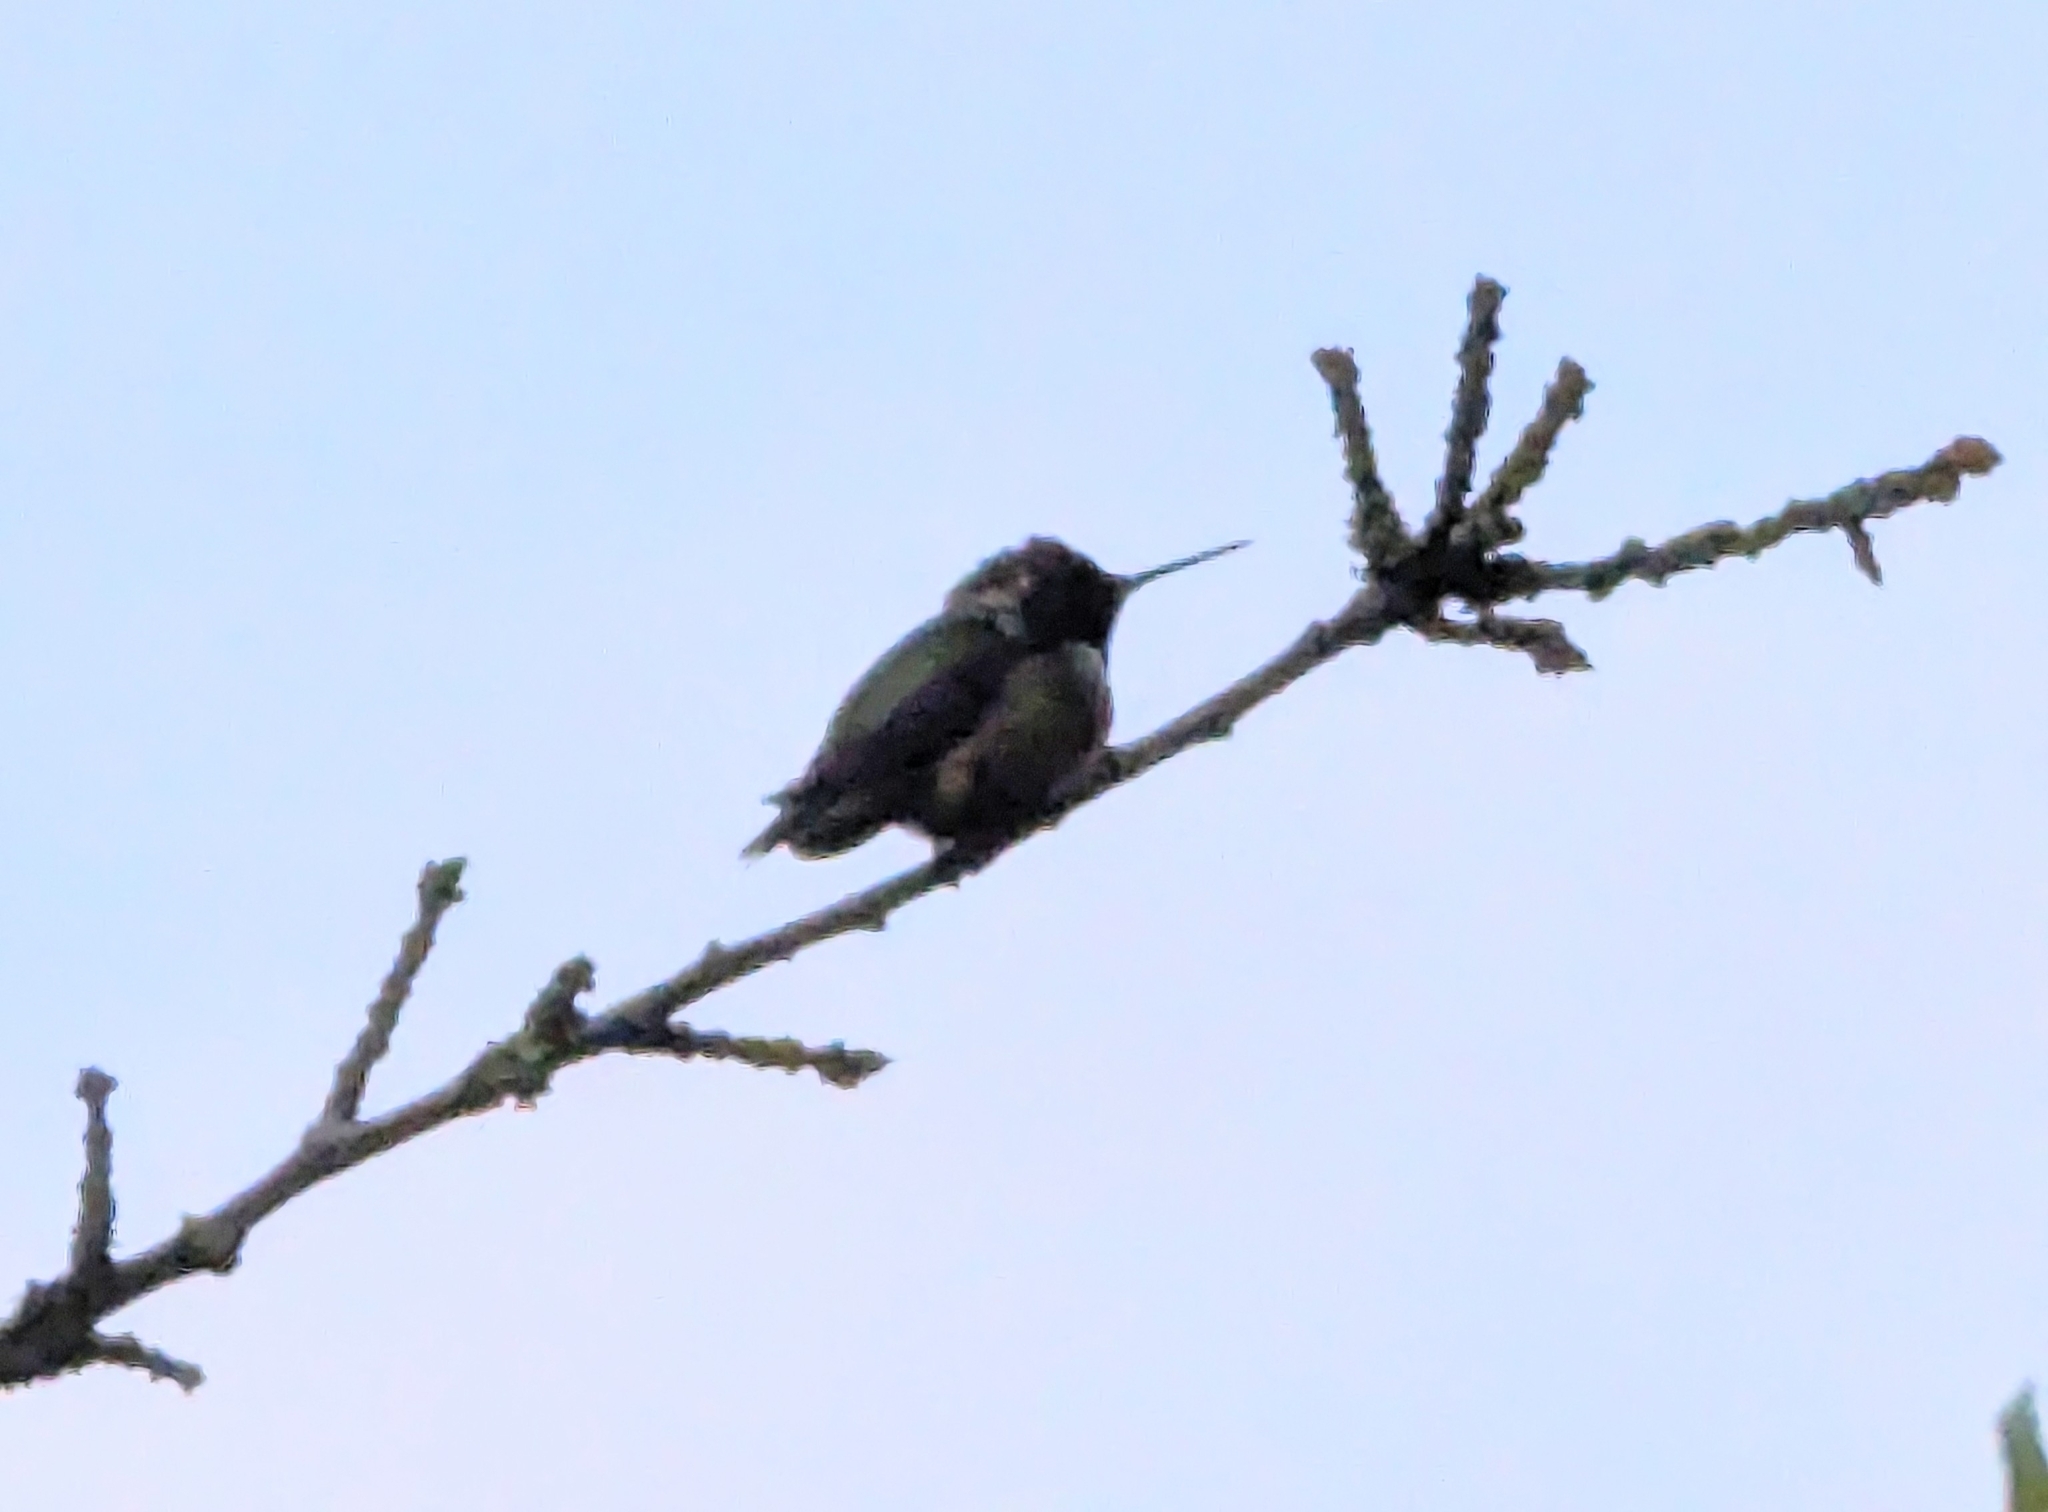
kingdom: Animalia
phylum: Chordata
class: Aves
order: Apodiformes
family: Trochilidae
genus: Calypte
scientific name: Calypte anna
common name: Anna's hummingbird
